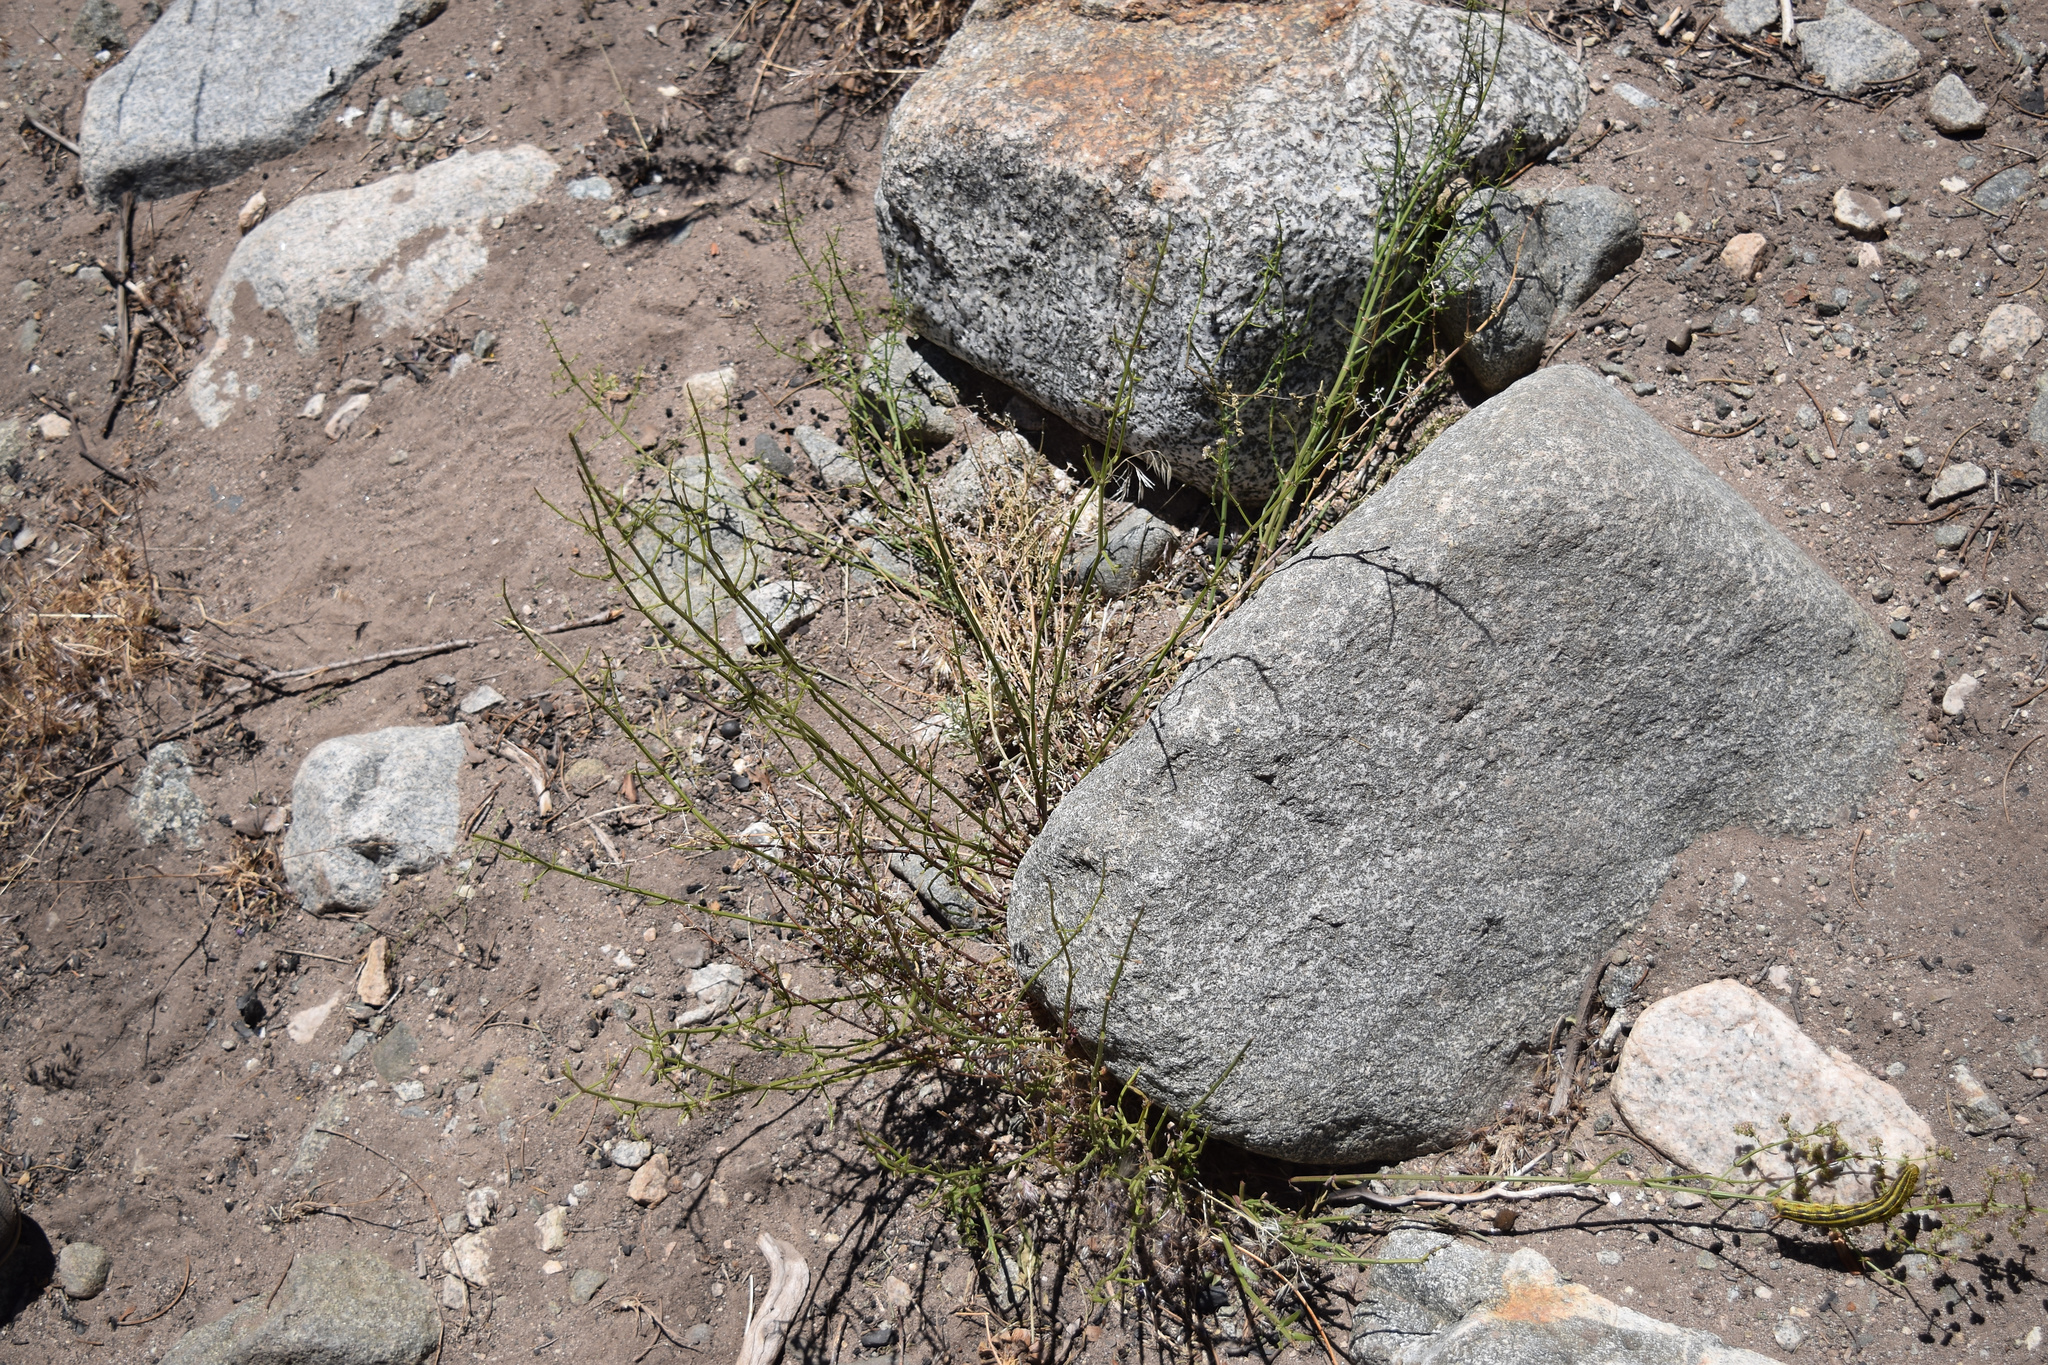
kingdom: Animalia
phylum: Arthropoda
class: Insecta
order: Lepidoptera
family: Sphingidae
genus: Hyles
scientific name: Hyles lineata
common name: White-lined sphinx
